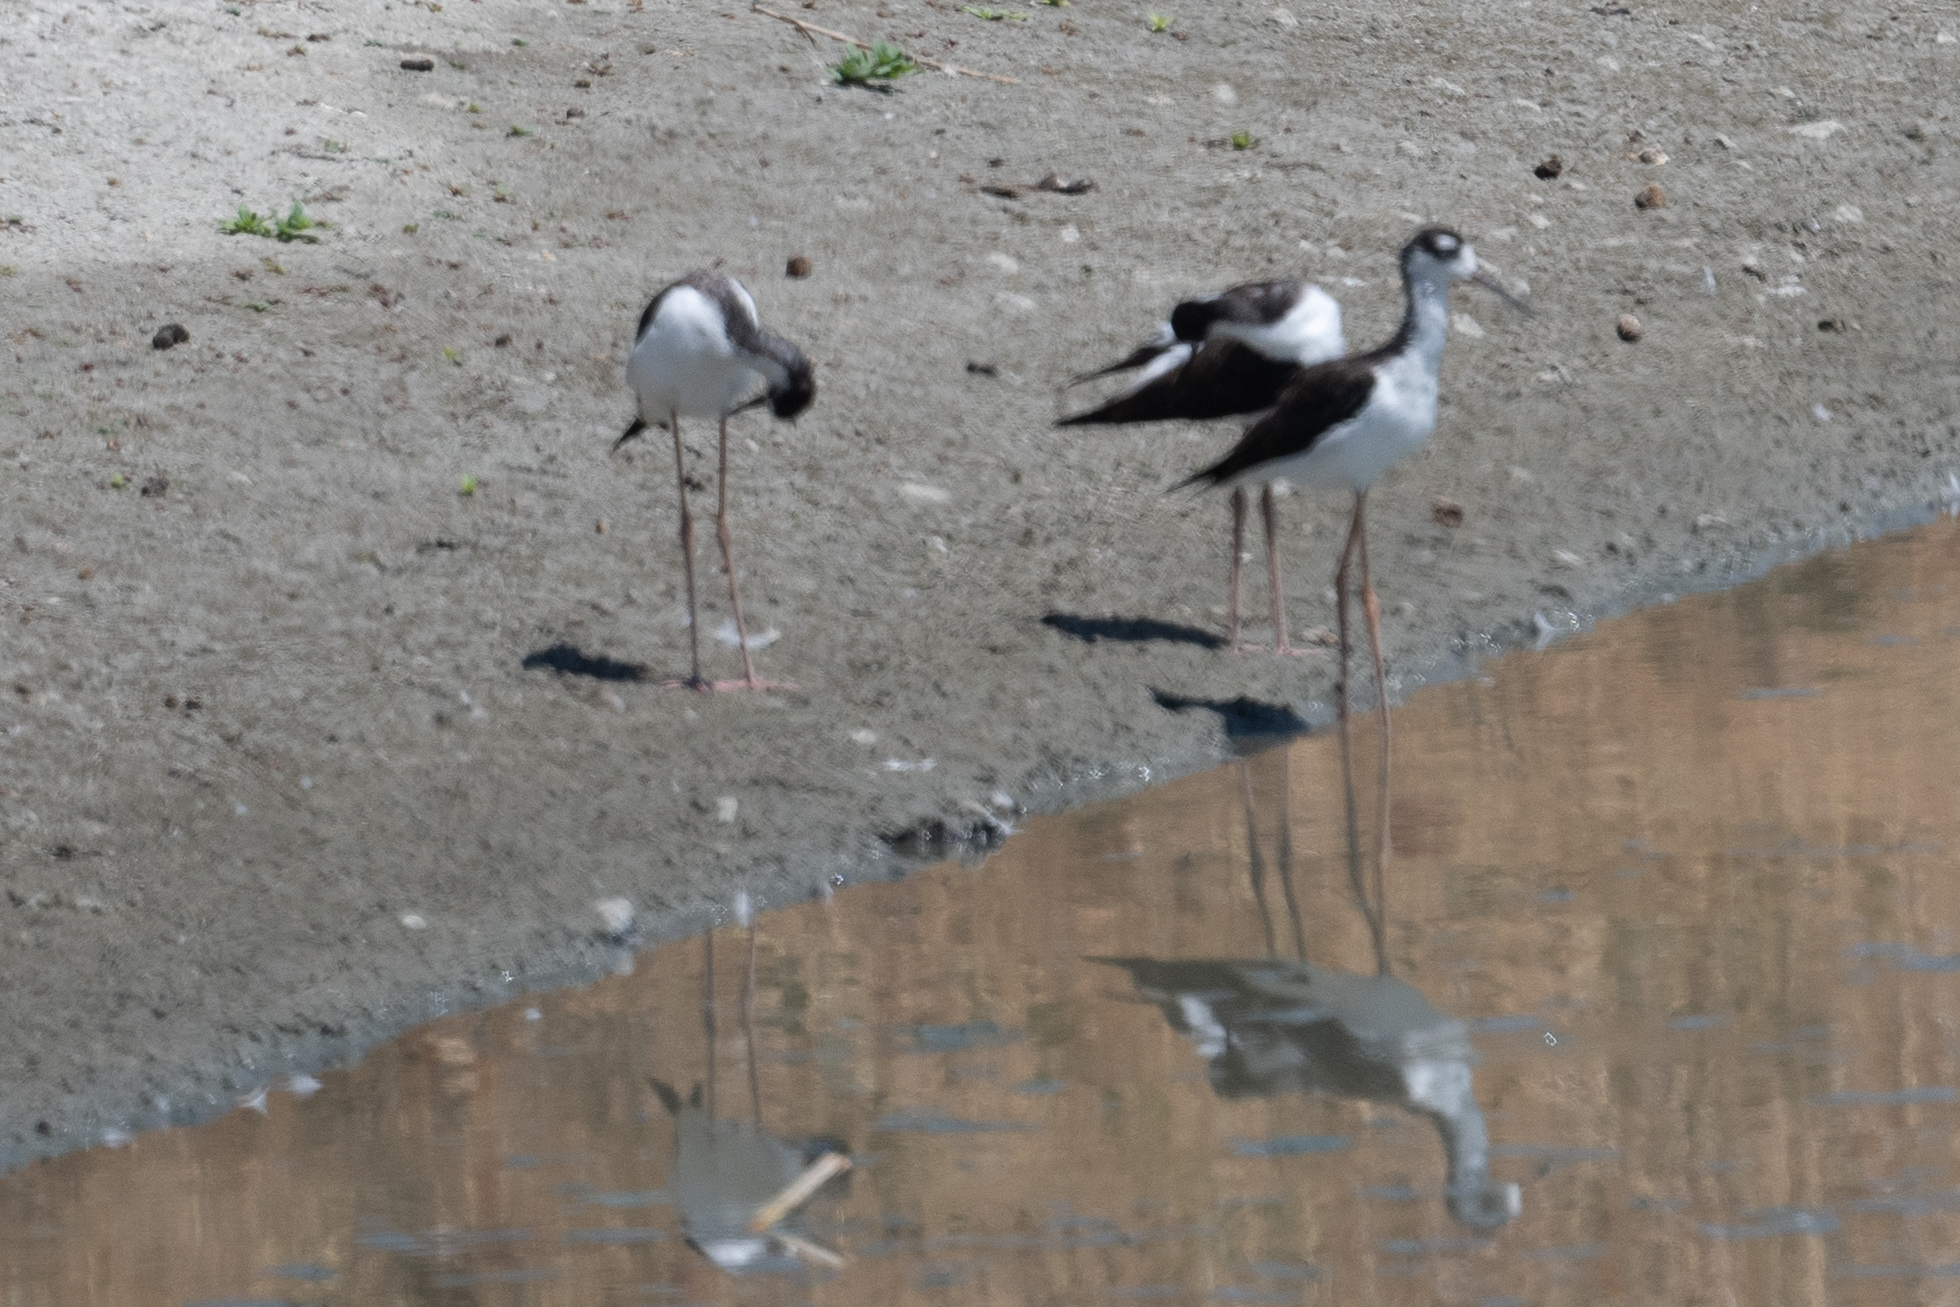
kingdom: Animalia
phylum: Chordata
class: Aves
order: Charadriiformes
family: Recurvirostridae
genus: Himantopus
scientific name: Himantopus mexicanus
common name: Black-necked stilt
